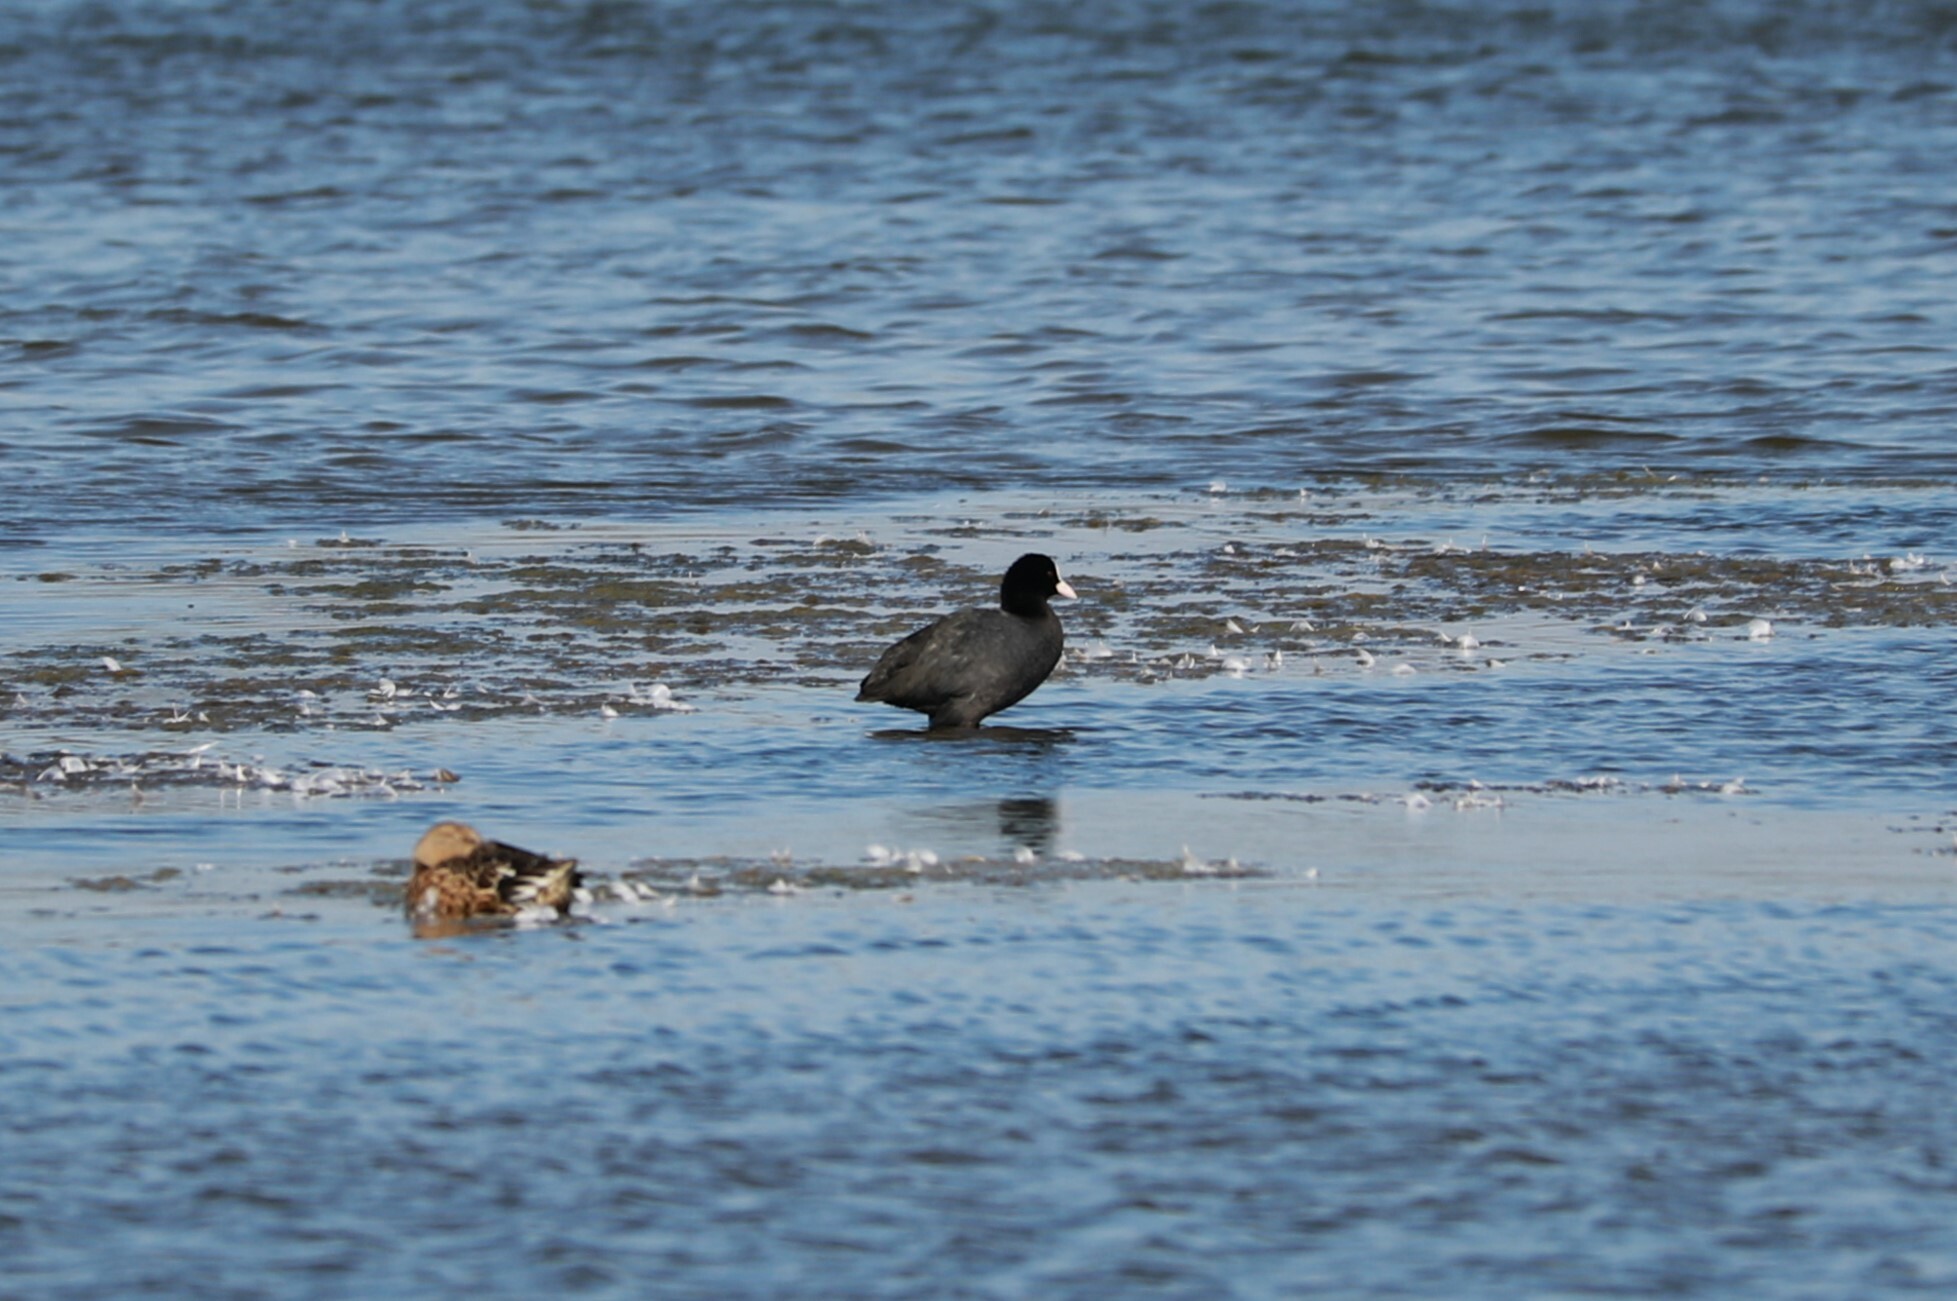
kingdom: Animalia
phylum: Chordata
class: Aves
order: Gruiformes
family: Rallidae
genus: Fulica
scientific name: Fulica atra
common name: Eurasian coot
